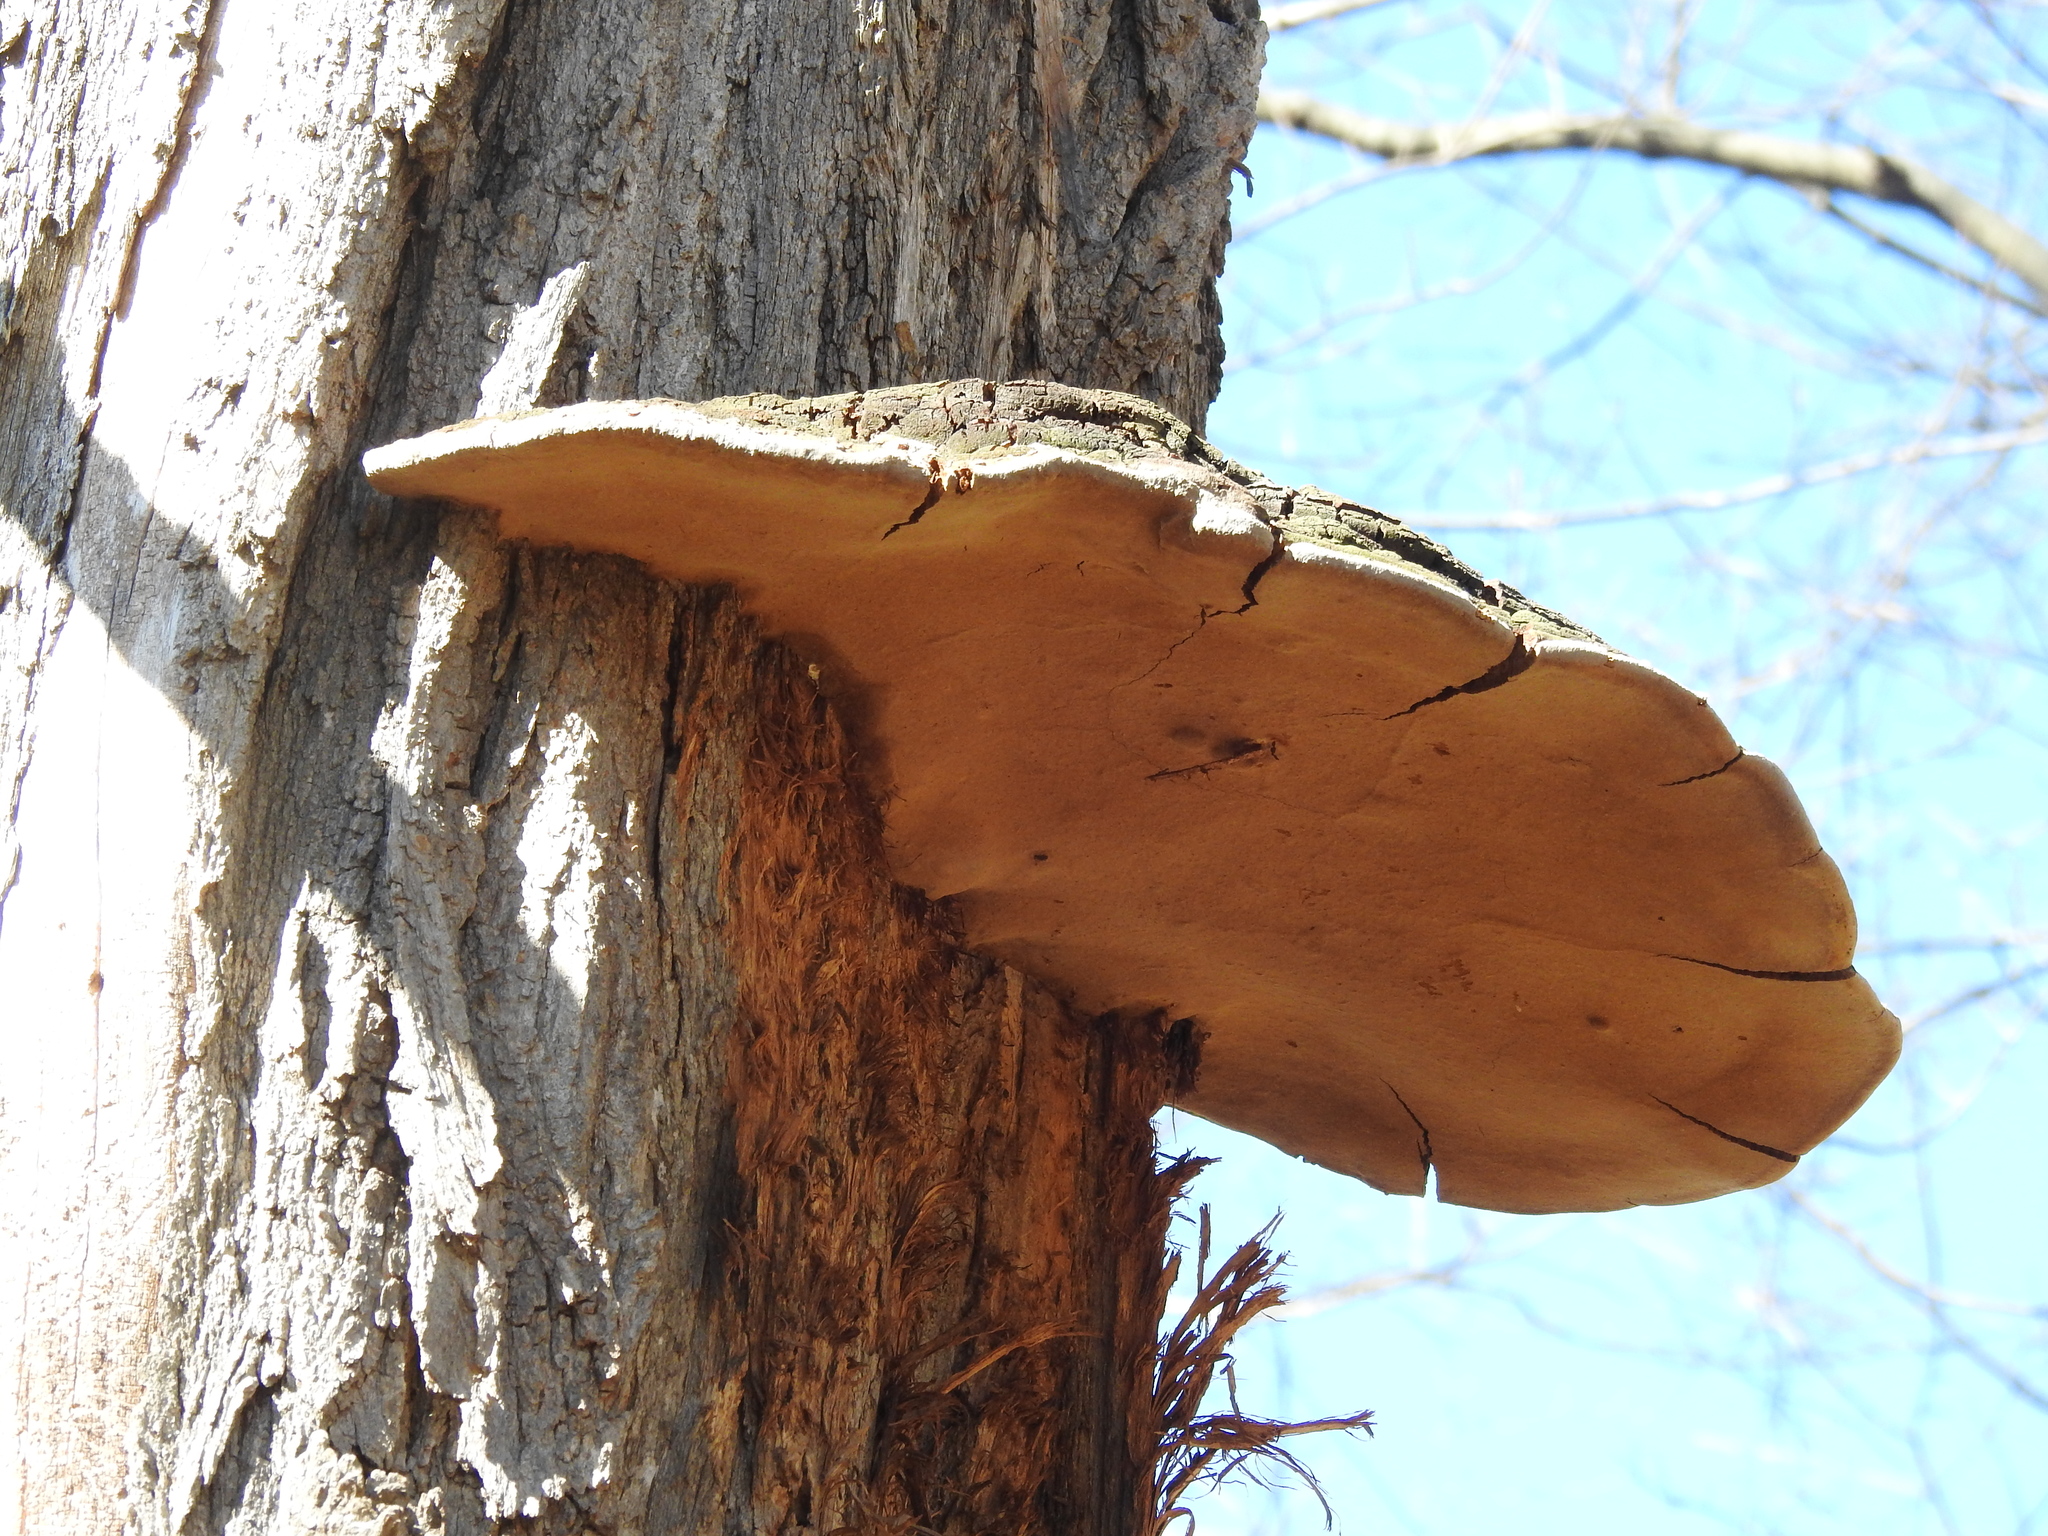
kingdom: Fungi
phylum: Basidiomycota
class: Agaricomycetes
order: Hymenochaetales
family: Hymenochaetaceae
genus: Phellinus
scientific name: Phellinus robiniae
